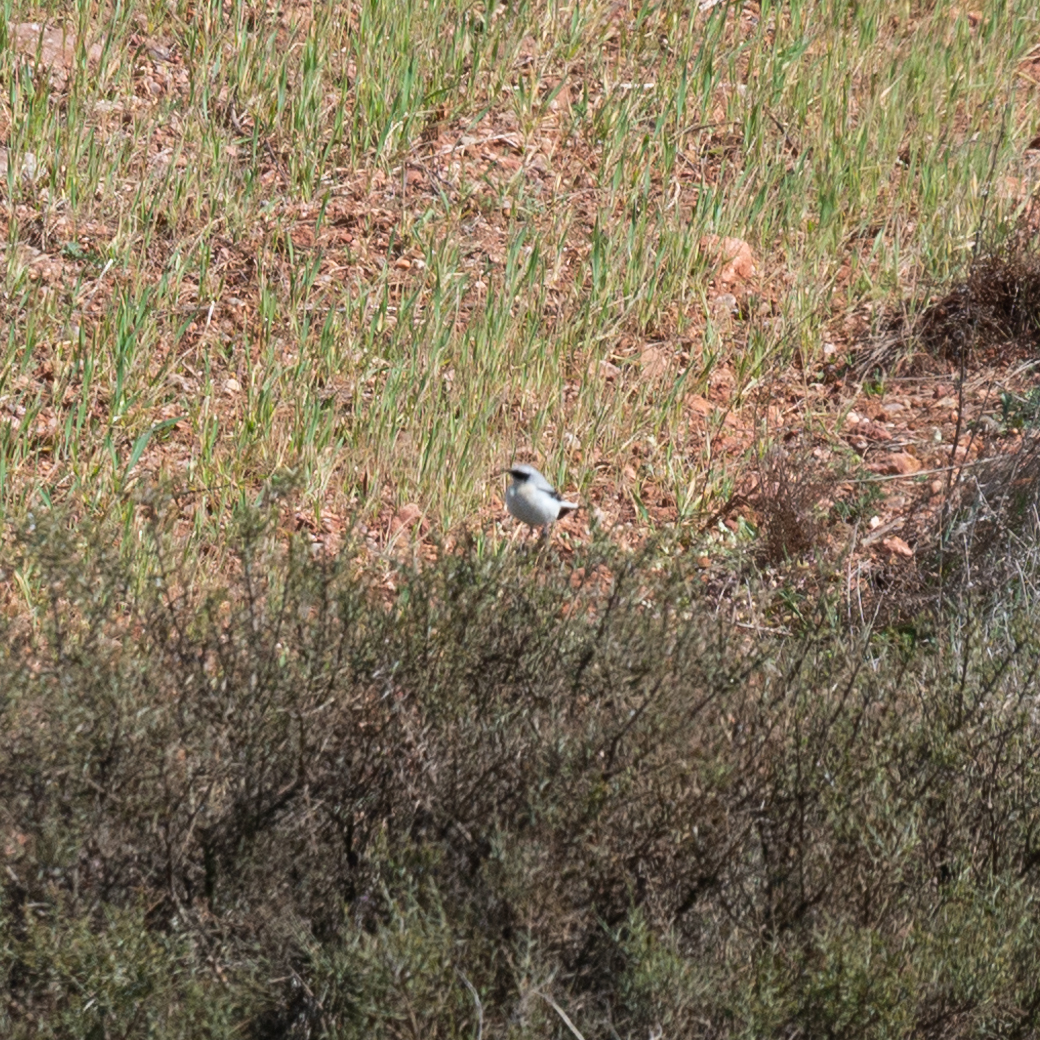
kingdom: Animalia
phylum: Chordata
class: Aves
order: Passeriformes
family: Muscicapidae
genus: Oenanthe
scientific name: Oenanthe oenanthe
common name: Northern wheatear
